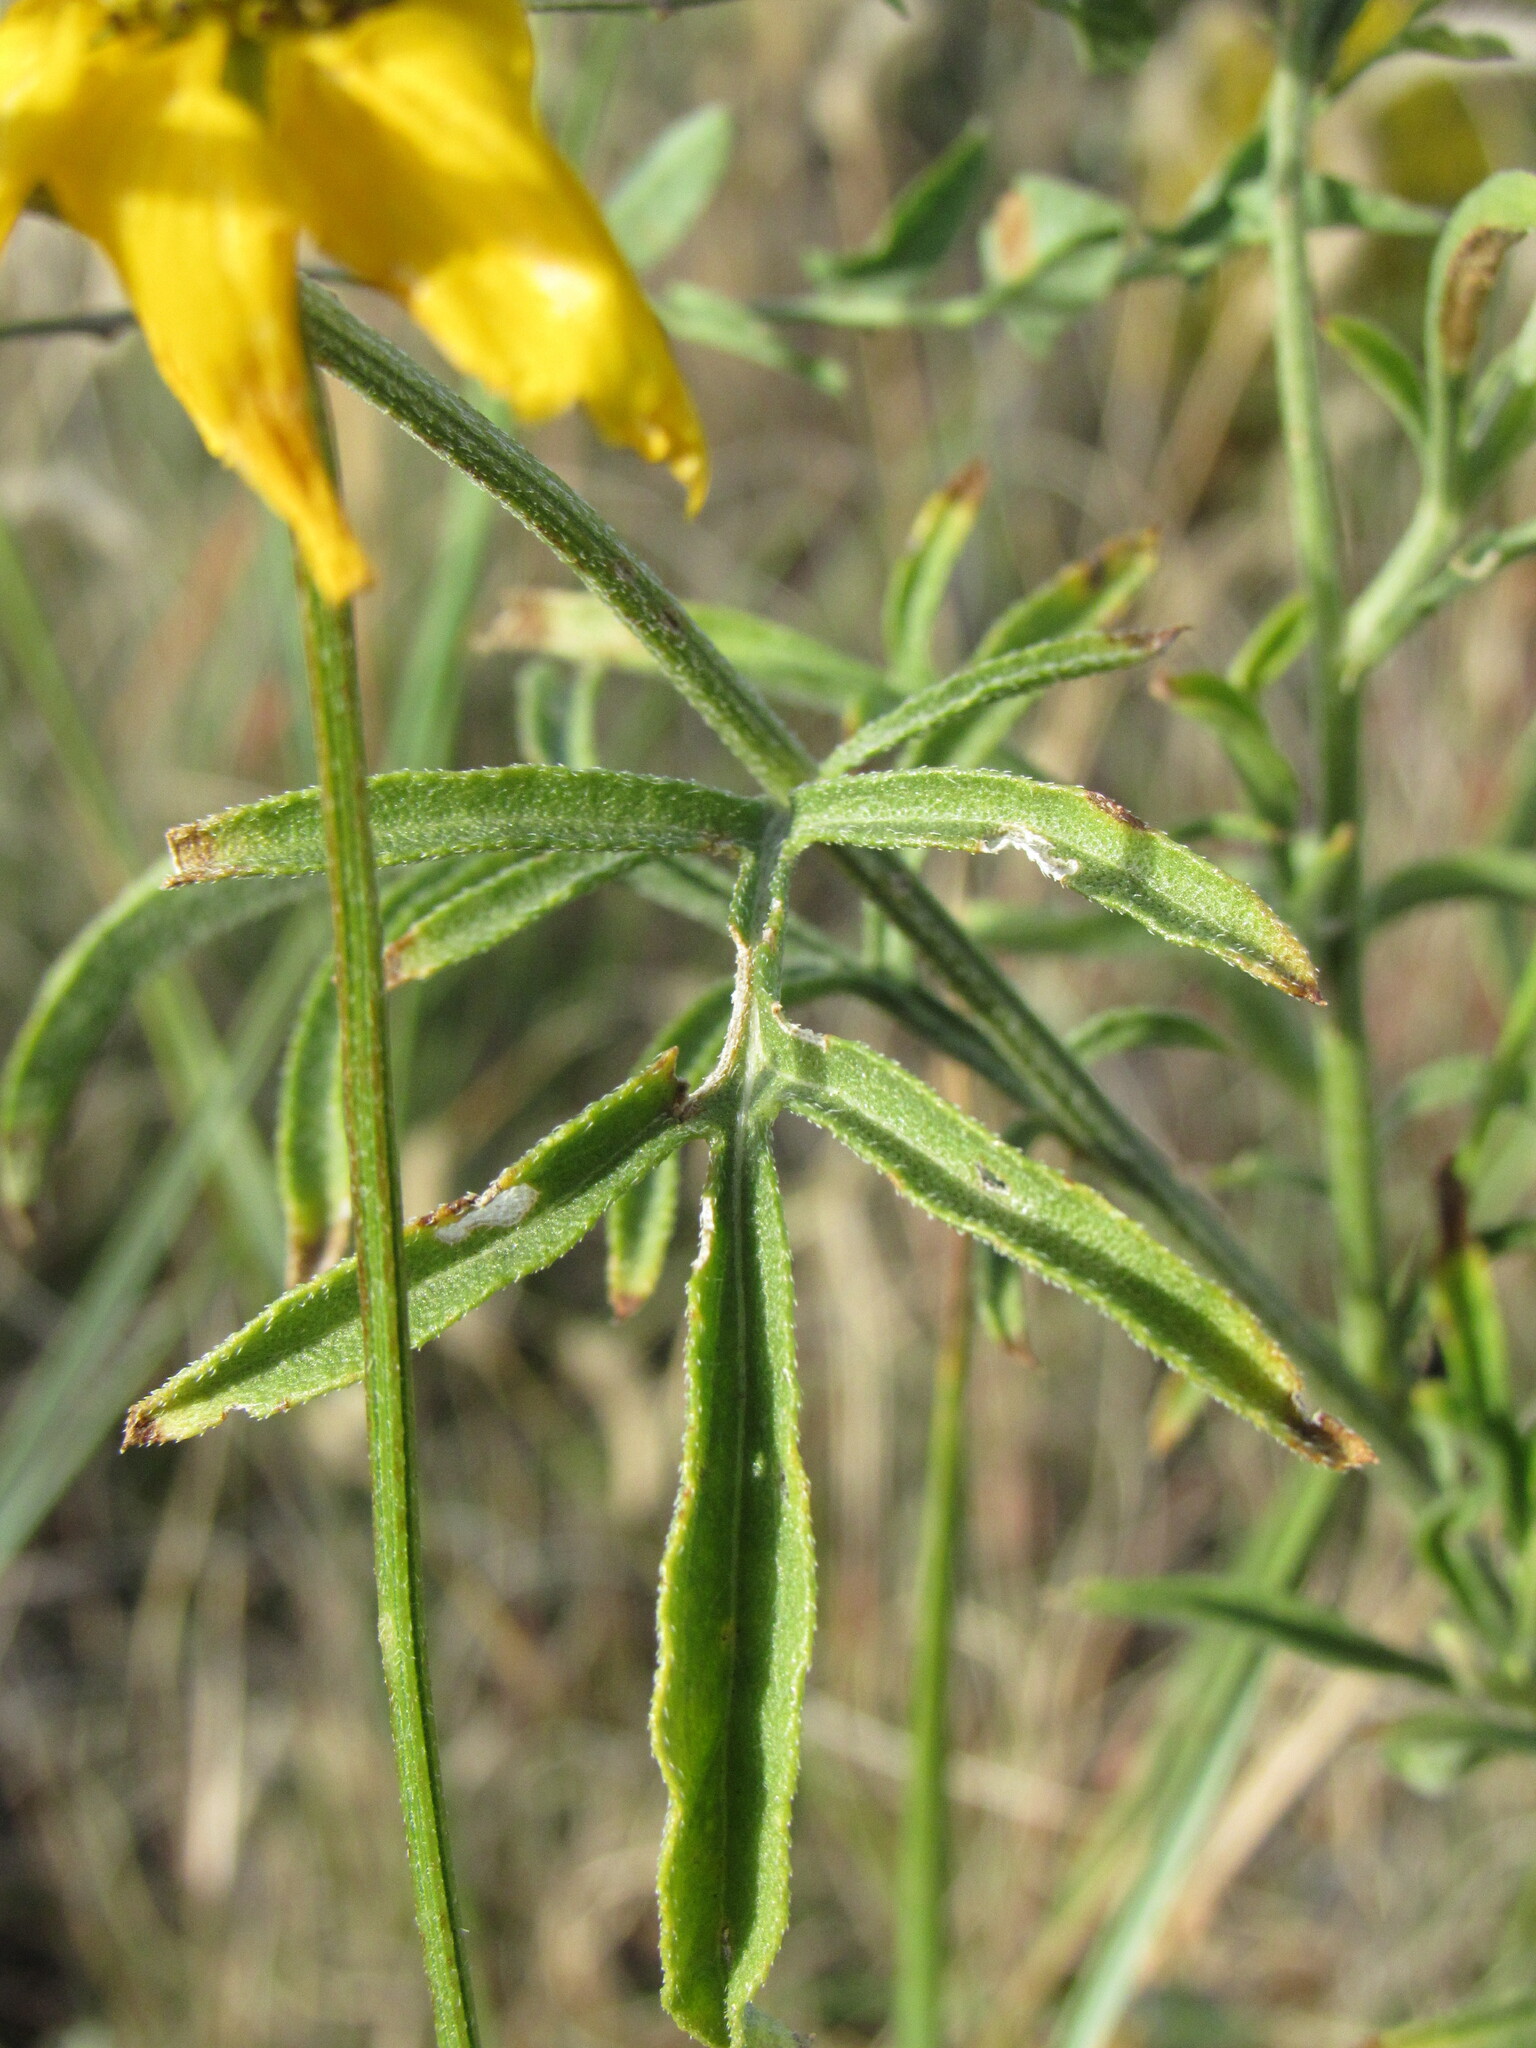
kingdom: Plantae
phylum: Tracheophyta
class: Magnoliopsida
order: Asterales
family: Asteraceae
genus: Ratibida
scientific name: Ratibida columnifera
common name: Prairie coneflower
